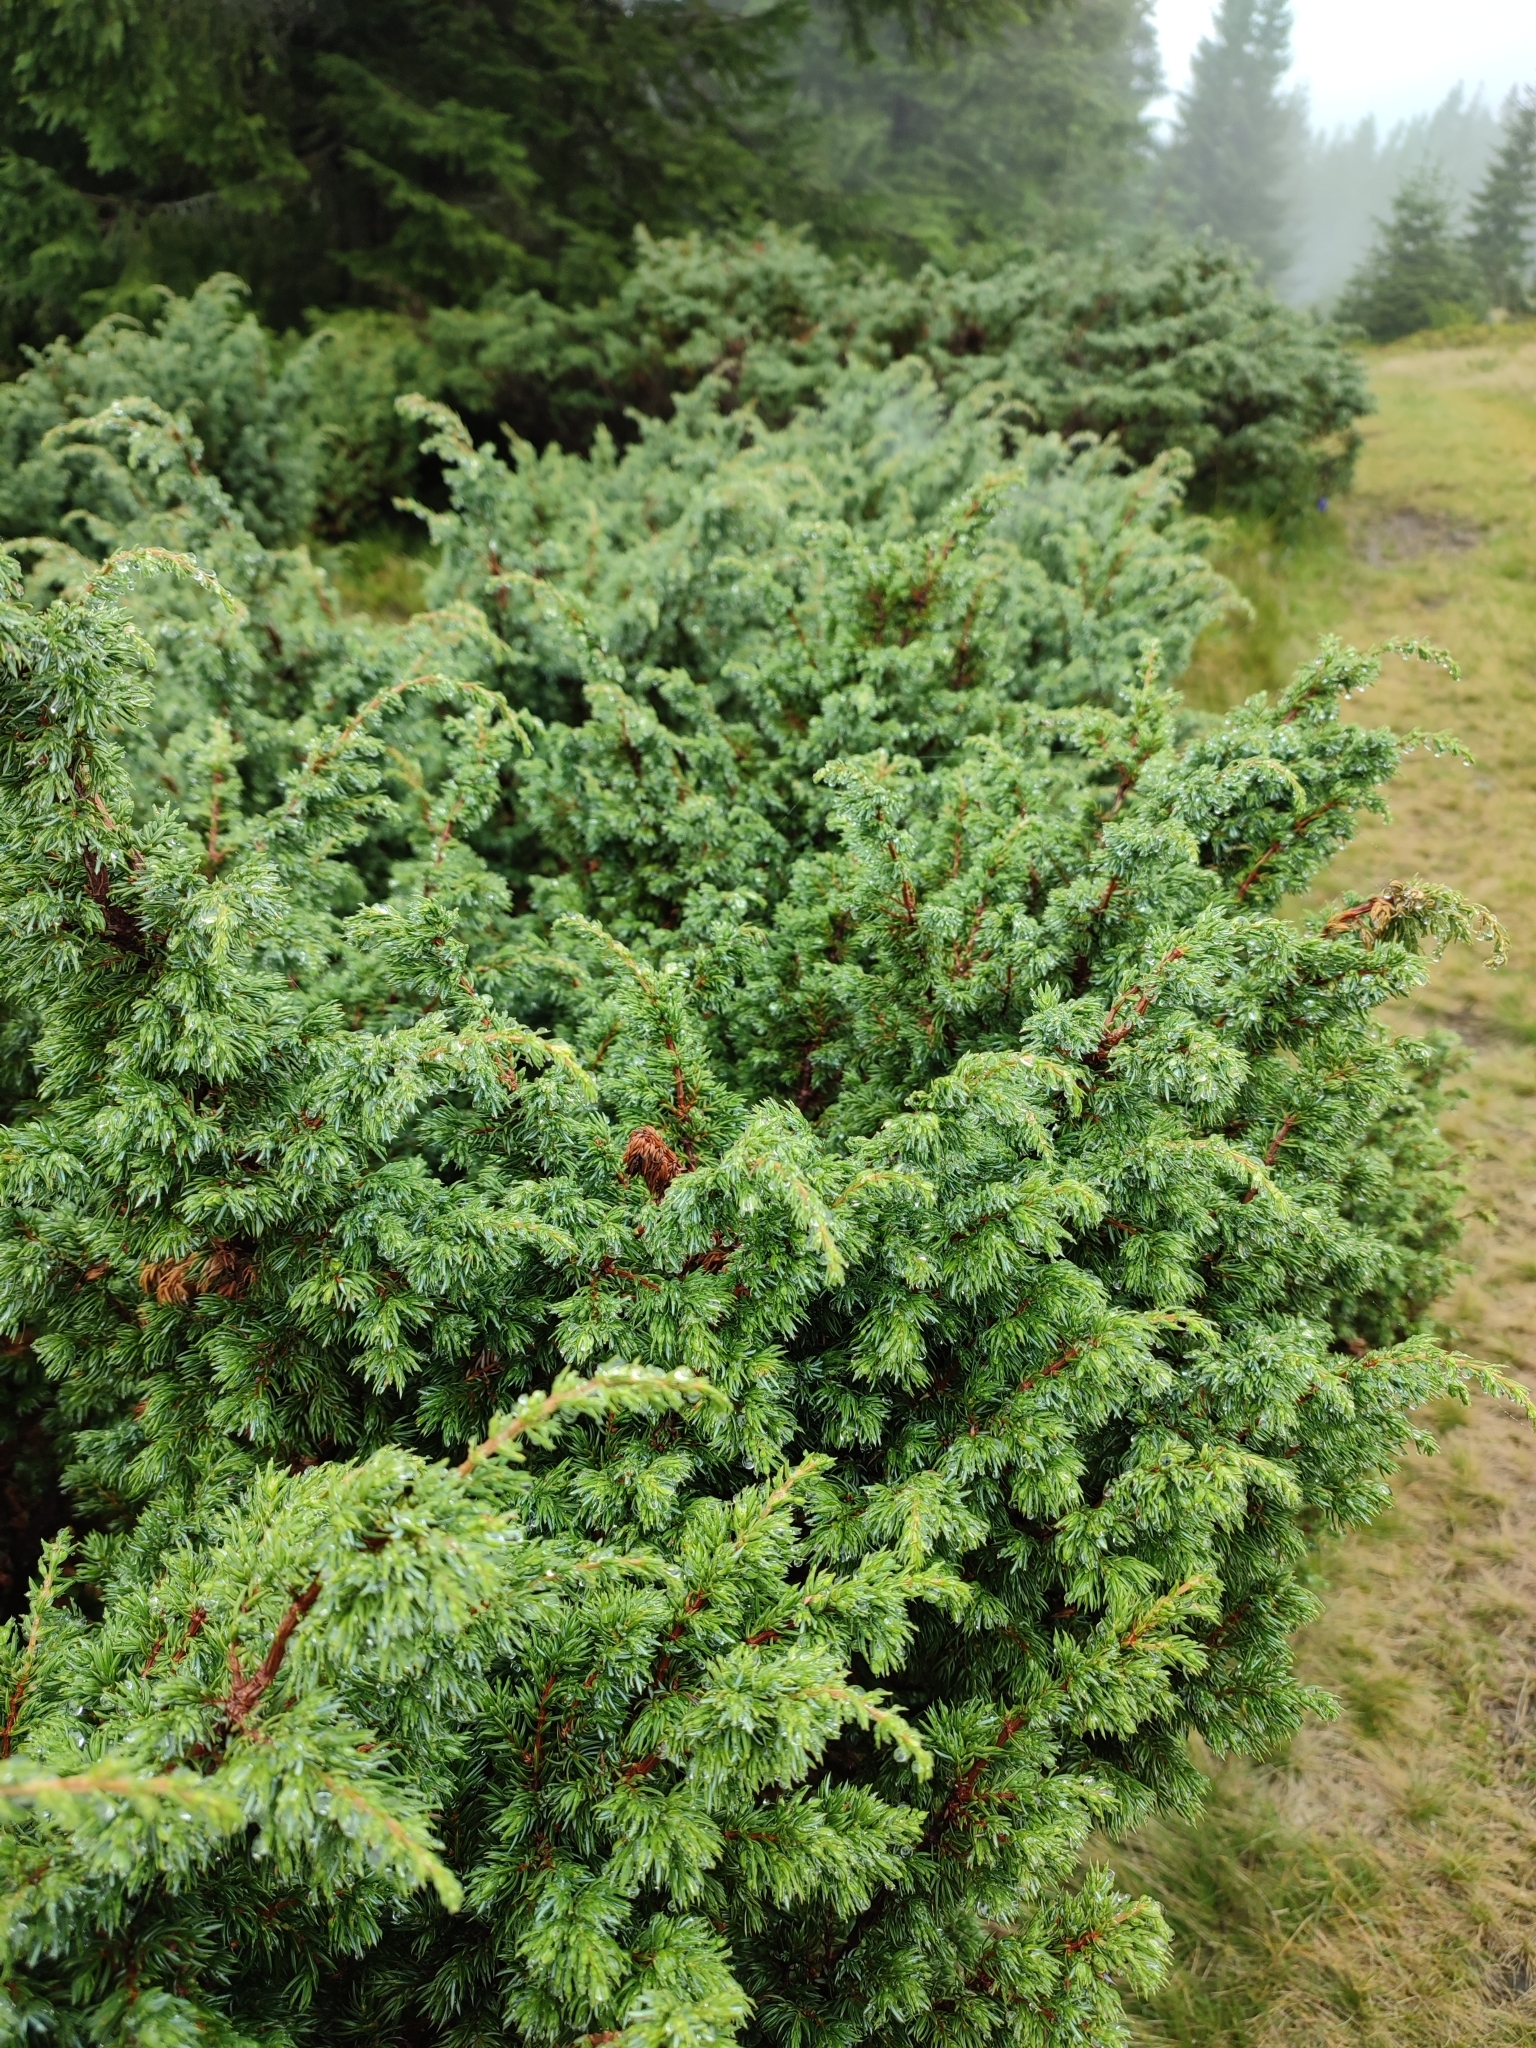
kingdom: Plantae
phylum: Tracheophyta
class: Pinopsida
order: Pinales
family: Cupressaceae
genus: Juniperus
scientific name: Juniperus communis
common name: Common juniper
